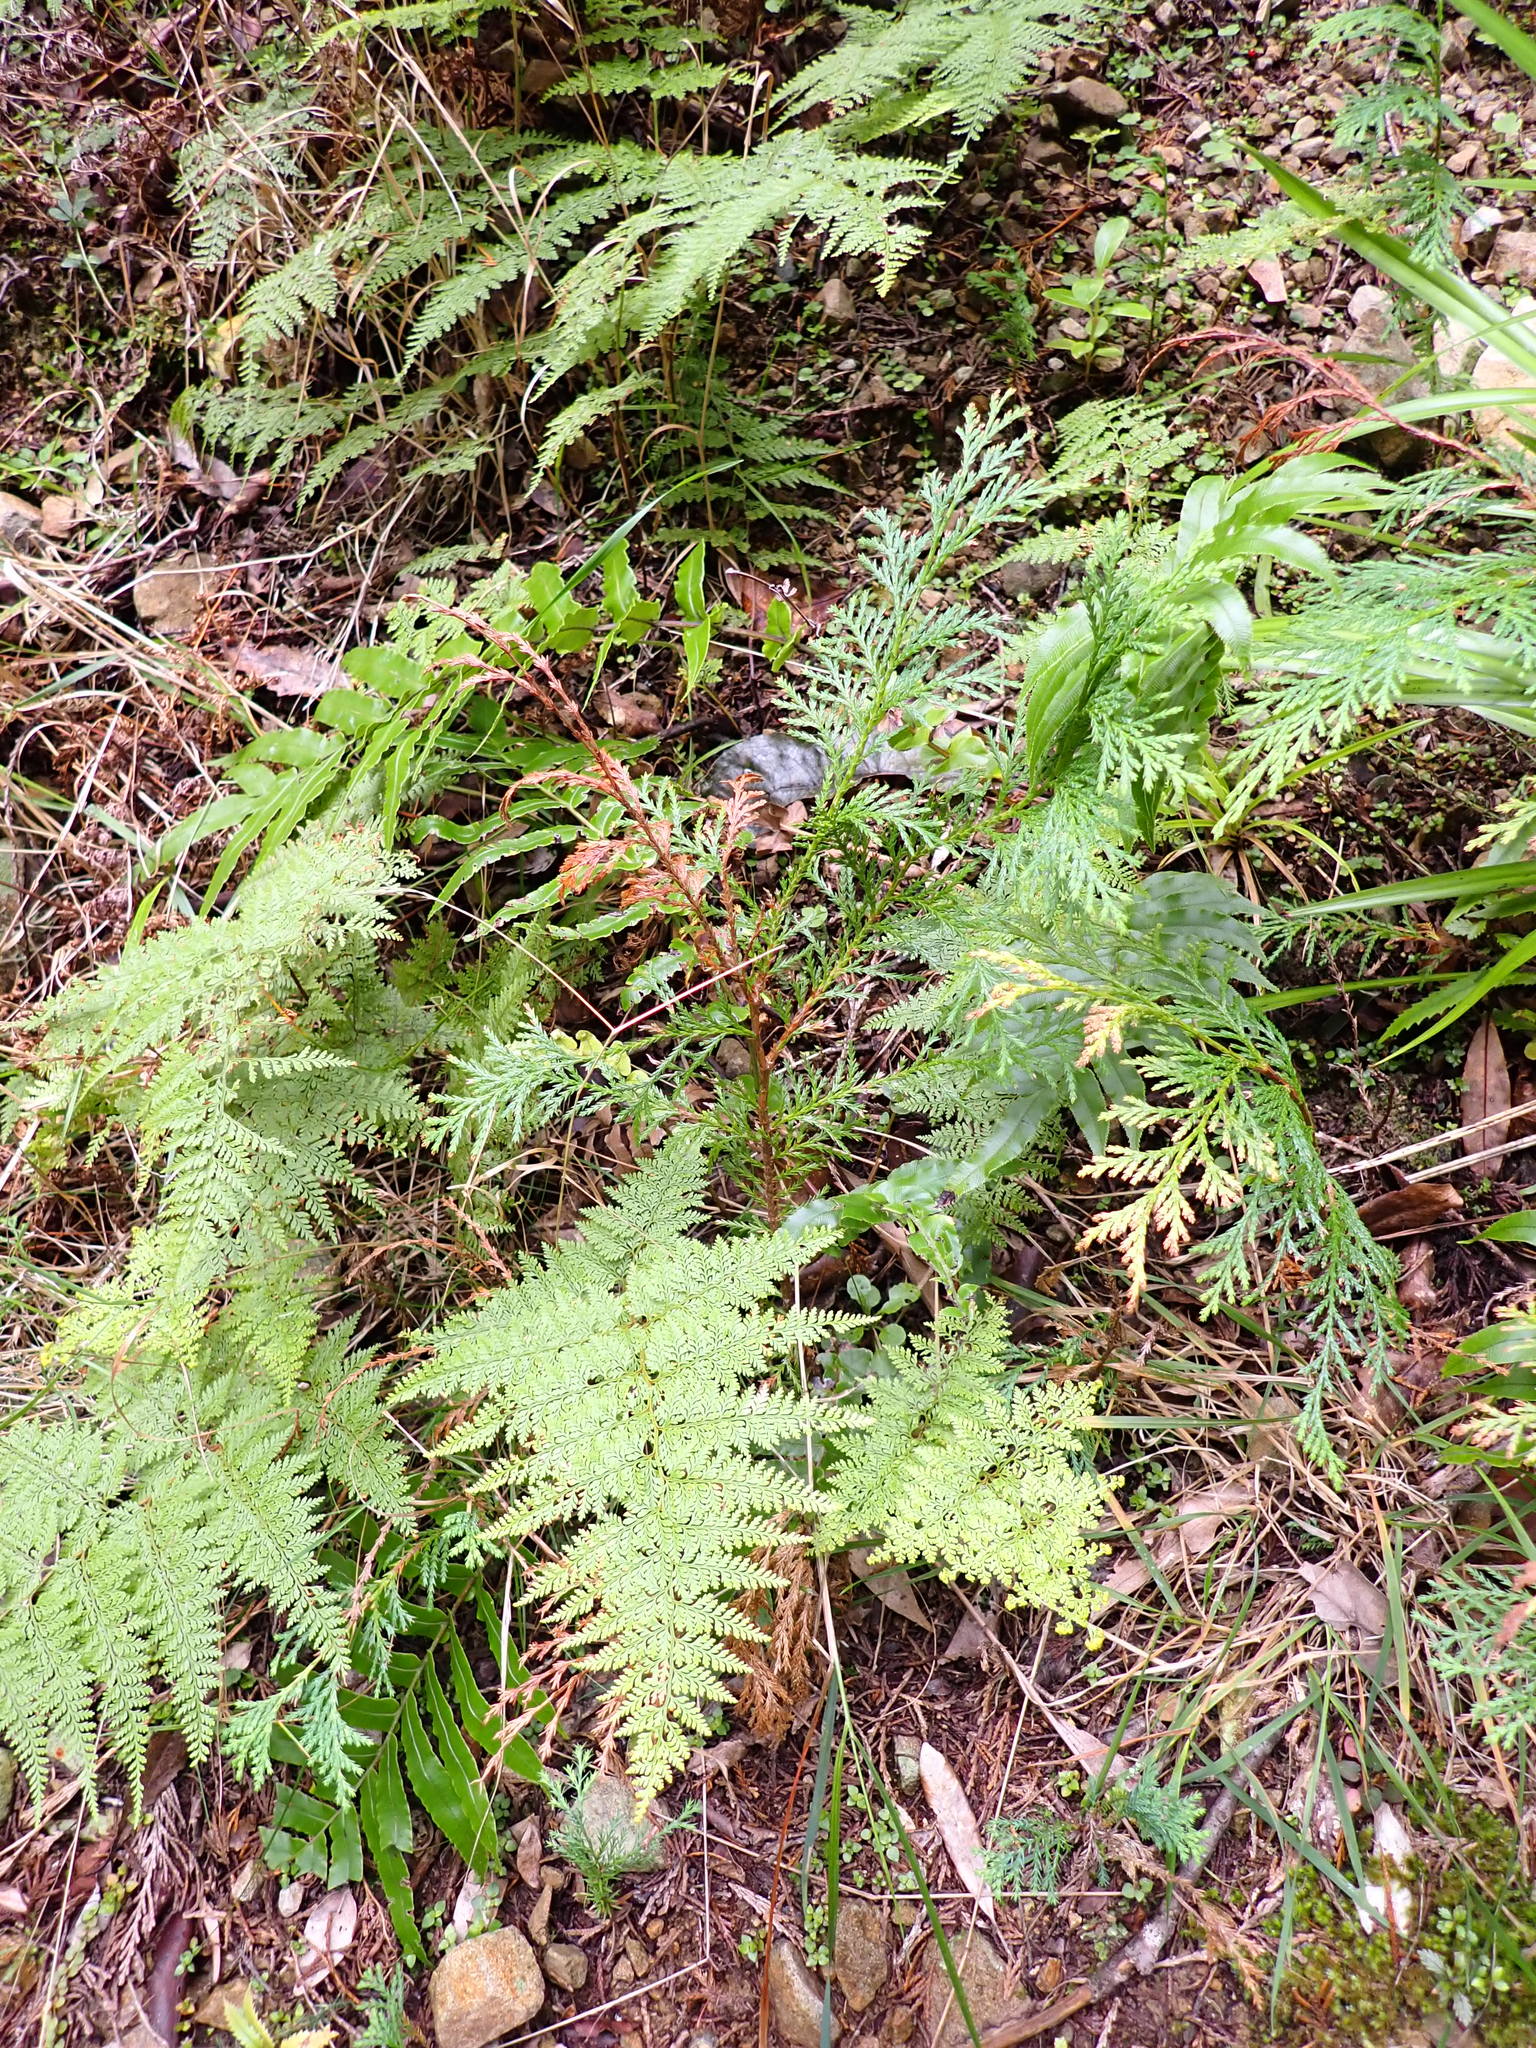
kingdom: Plantae
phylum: Tracheophyta
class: Polypodiopsida
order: Polypodiales
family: Dennstaedtiaceae
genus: Paesia
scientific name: Paesia scaberula
